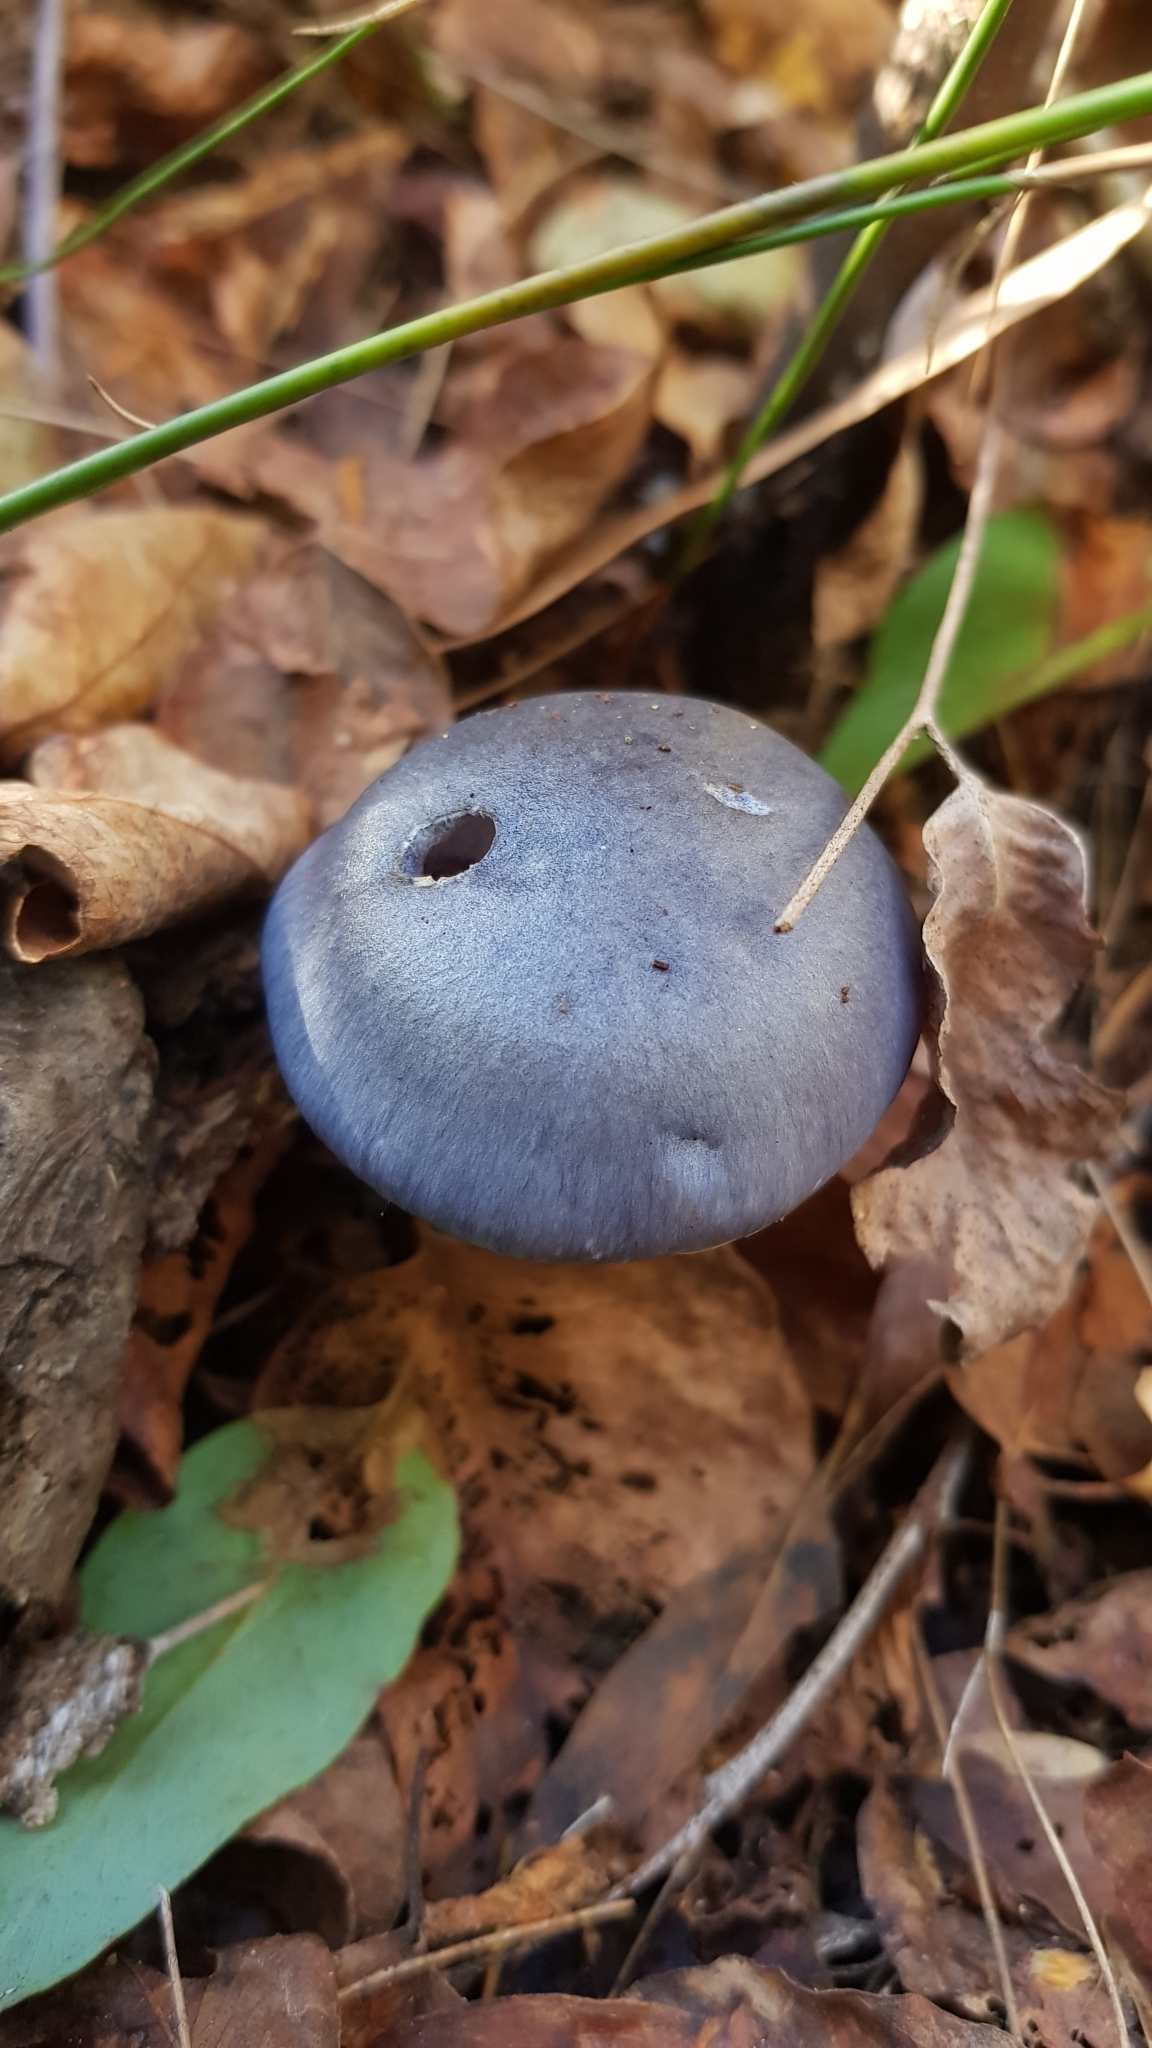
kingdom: Fungi
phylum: Basidiomycota
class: Agaricomycetes
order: Agaricales
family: Cortinariaceae
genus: Cortinarius
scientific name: Cortinarius rotundisporus
